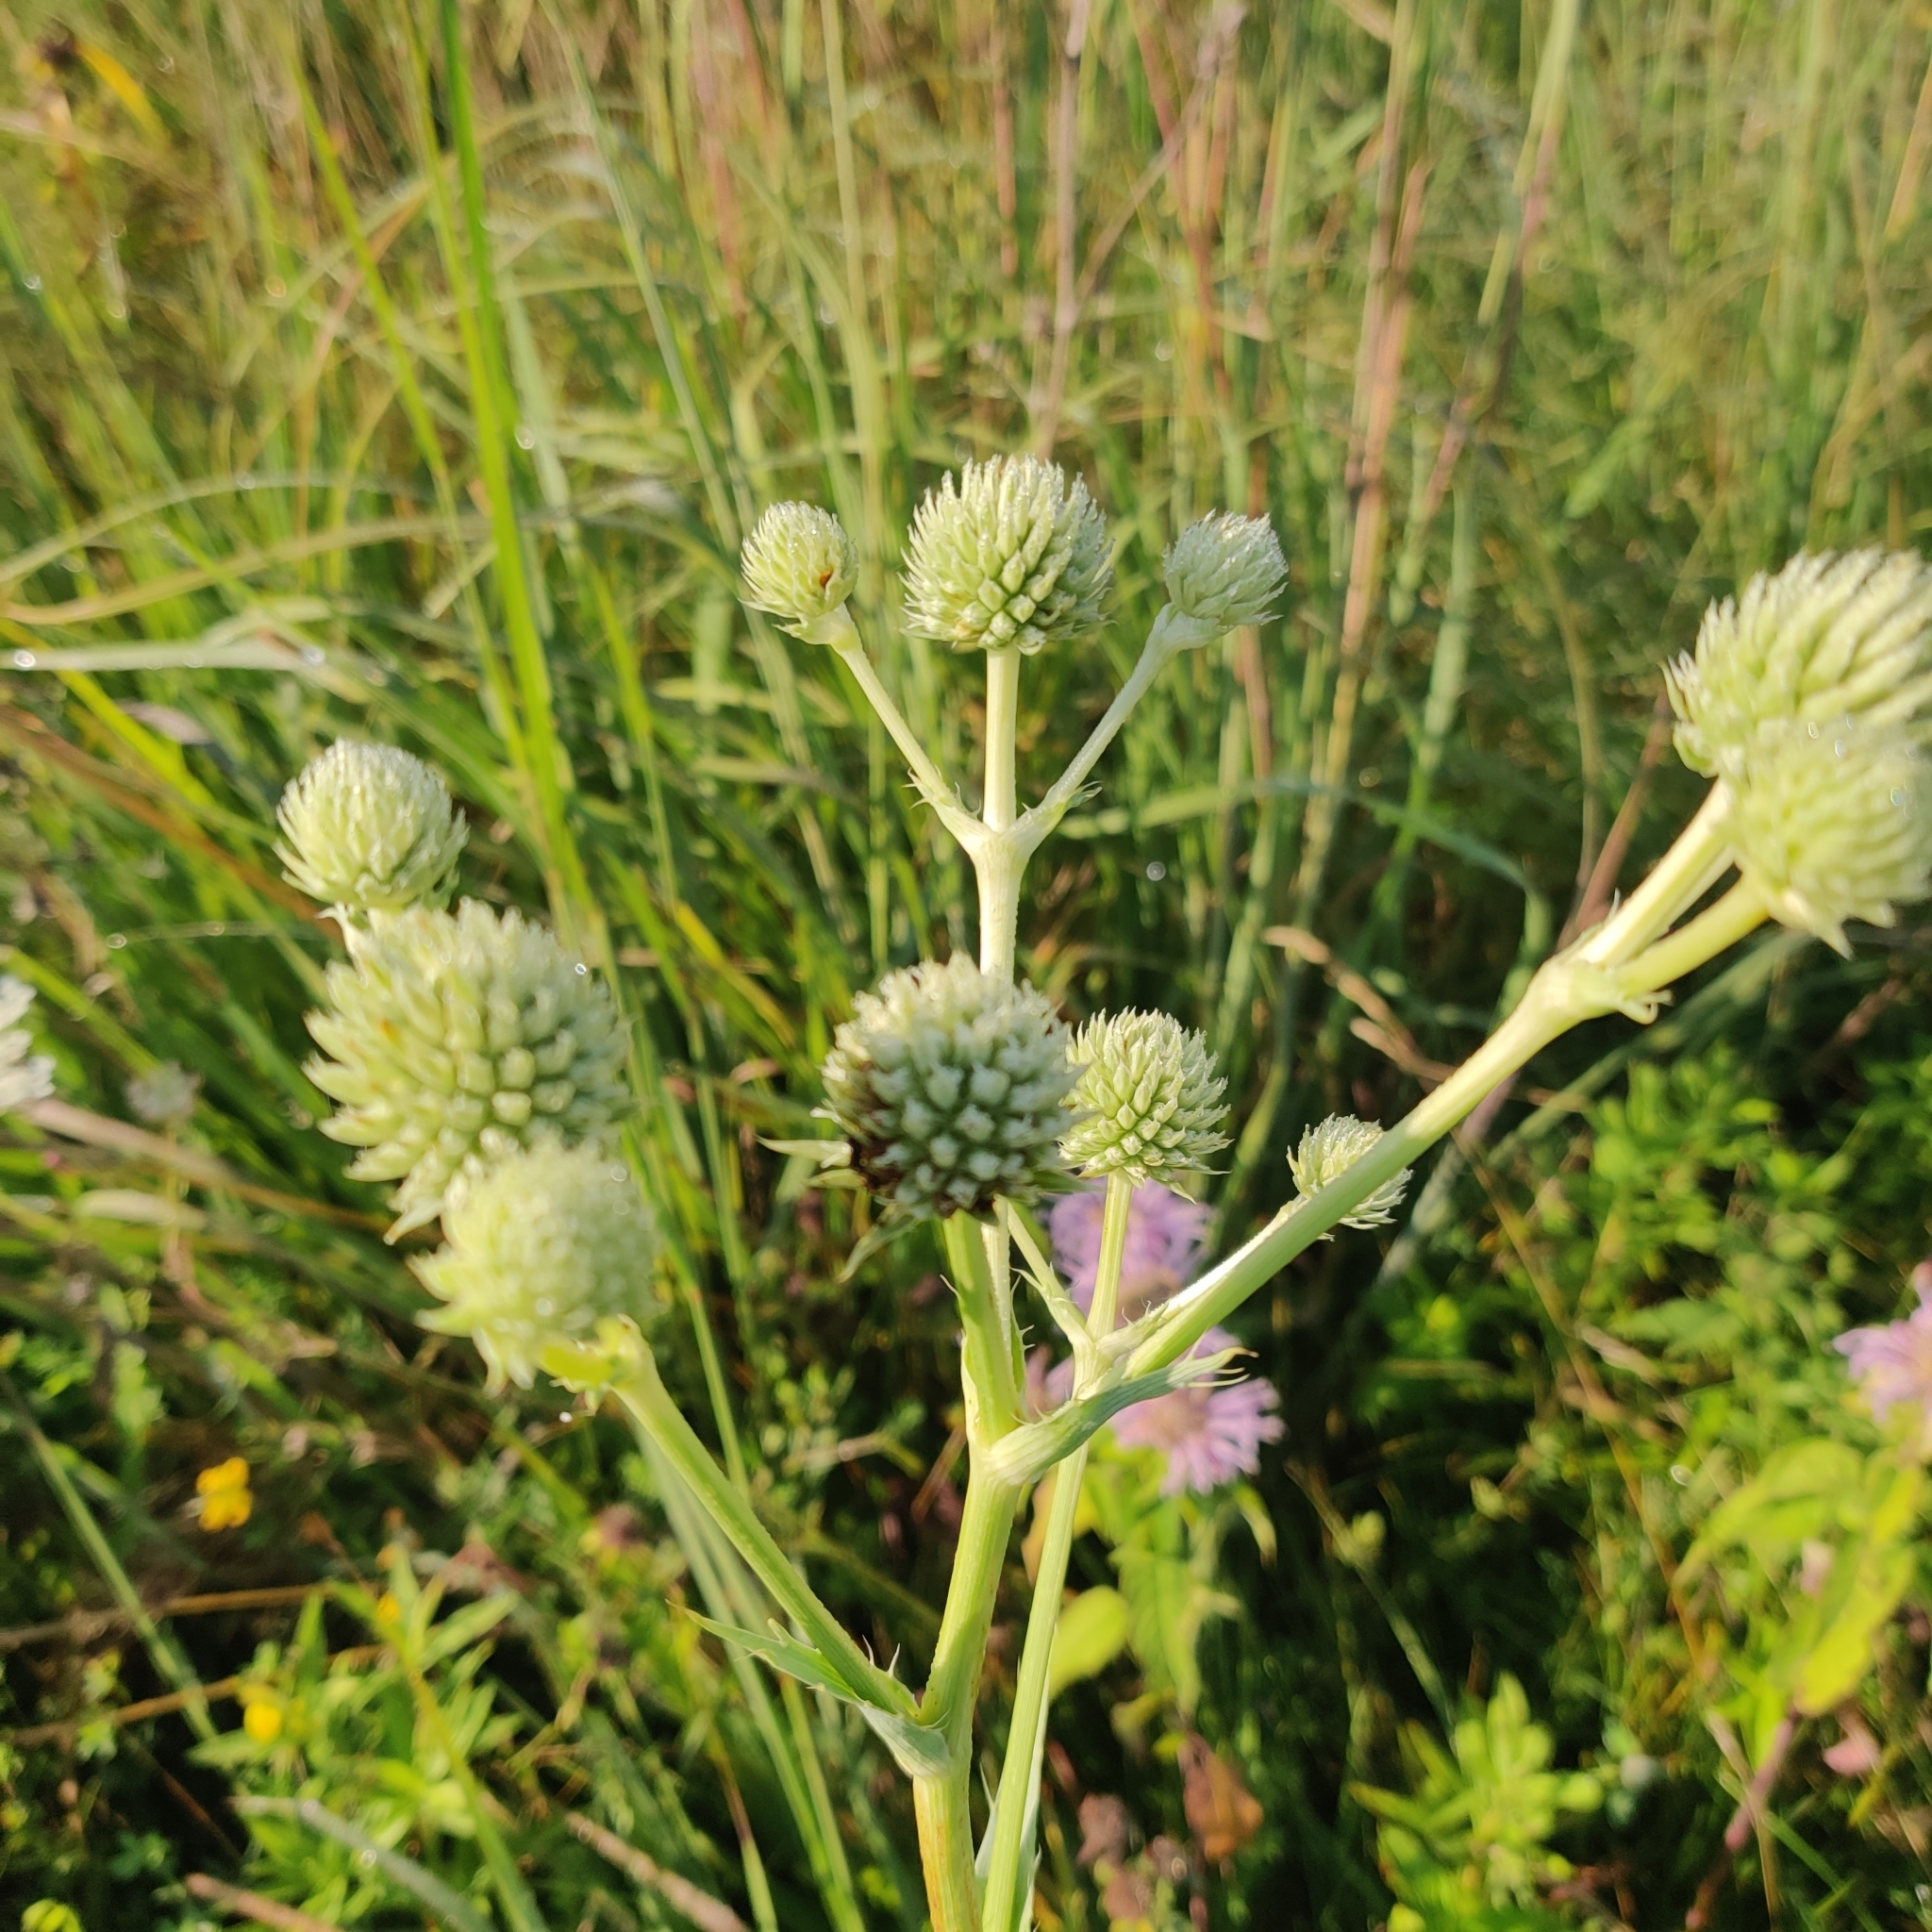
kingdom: Plantae
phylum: Tracheophyta
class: Magnoliopsida
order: Apiales
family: Apiaceae
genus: Eryngium
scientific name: Eryngium yuccifolium
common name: Button eryngo
